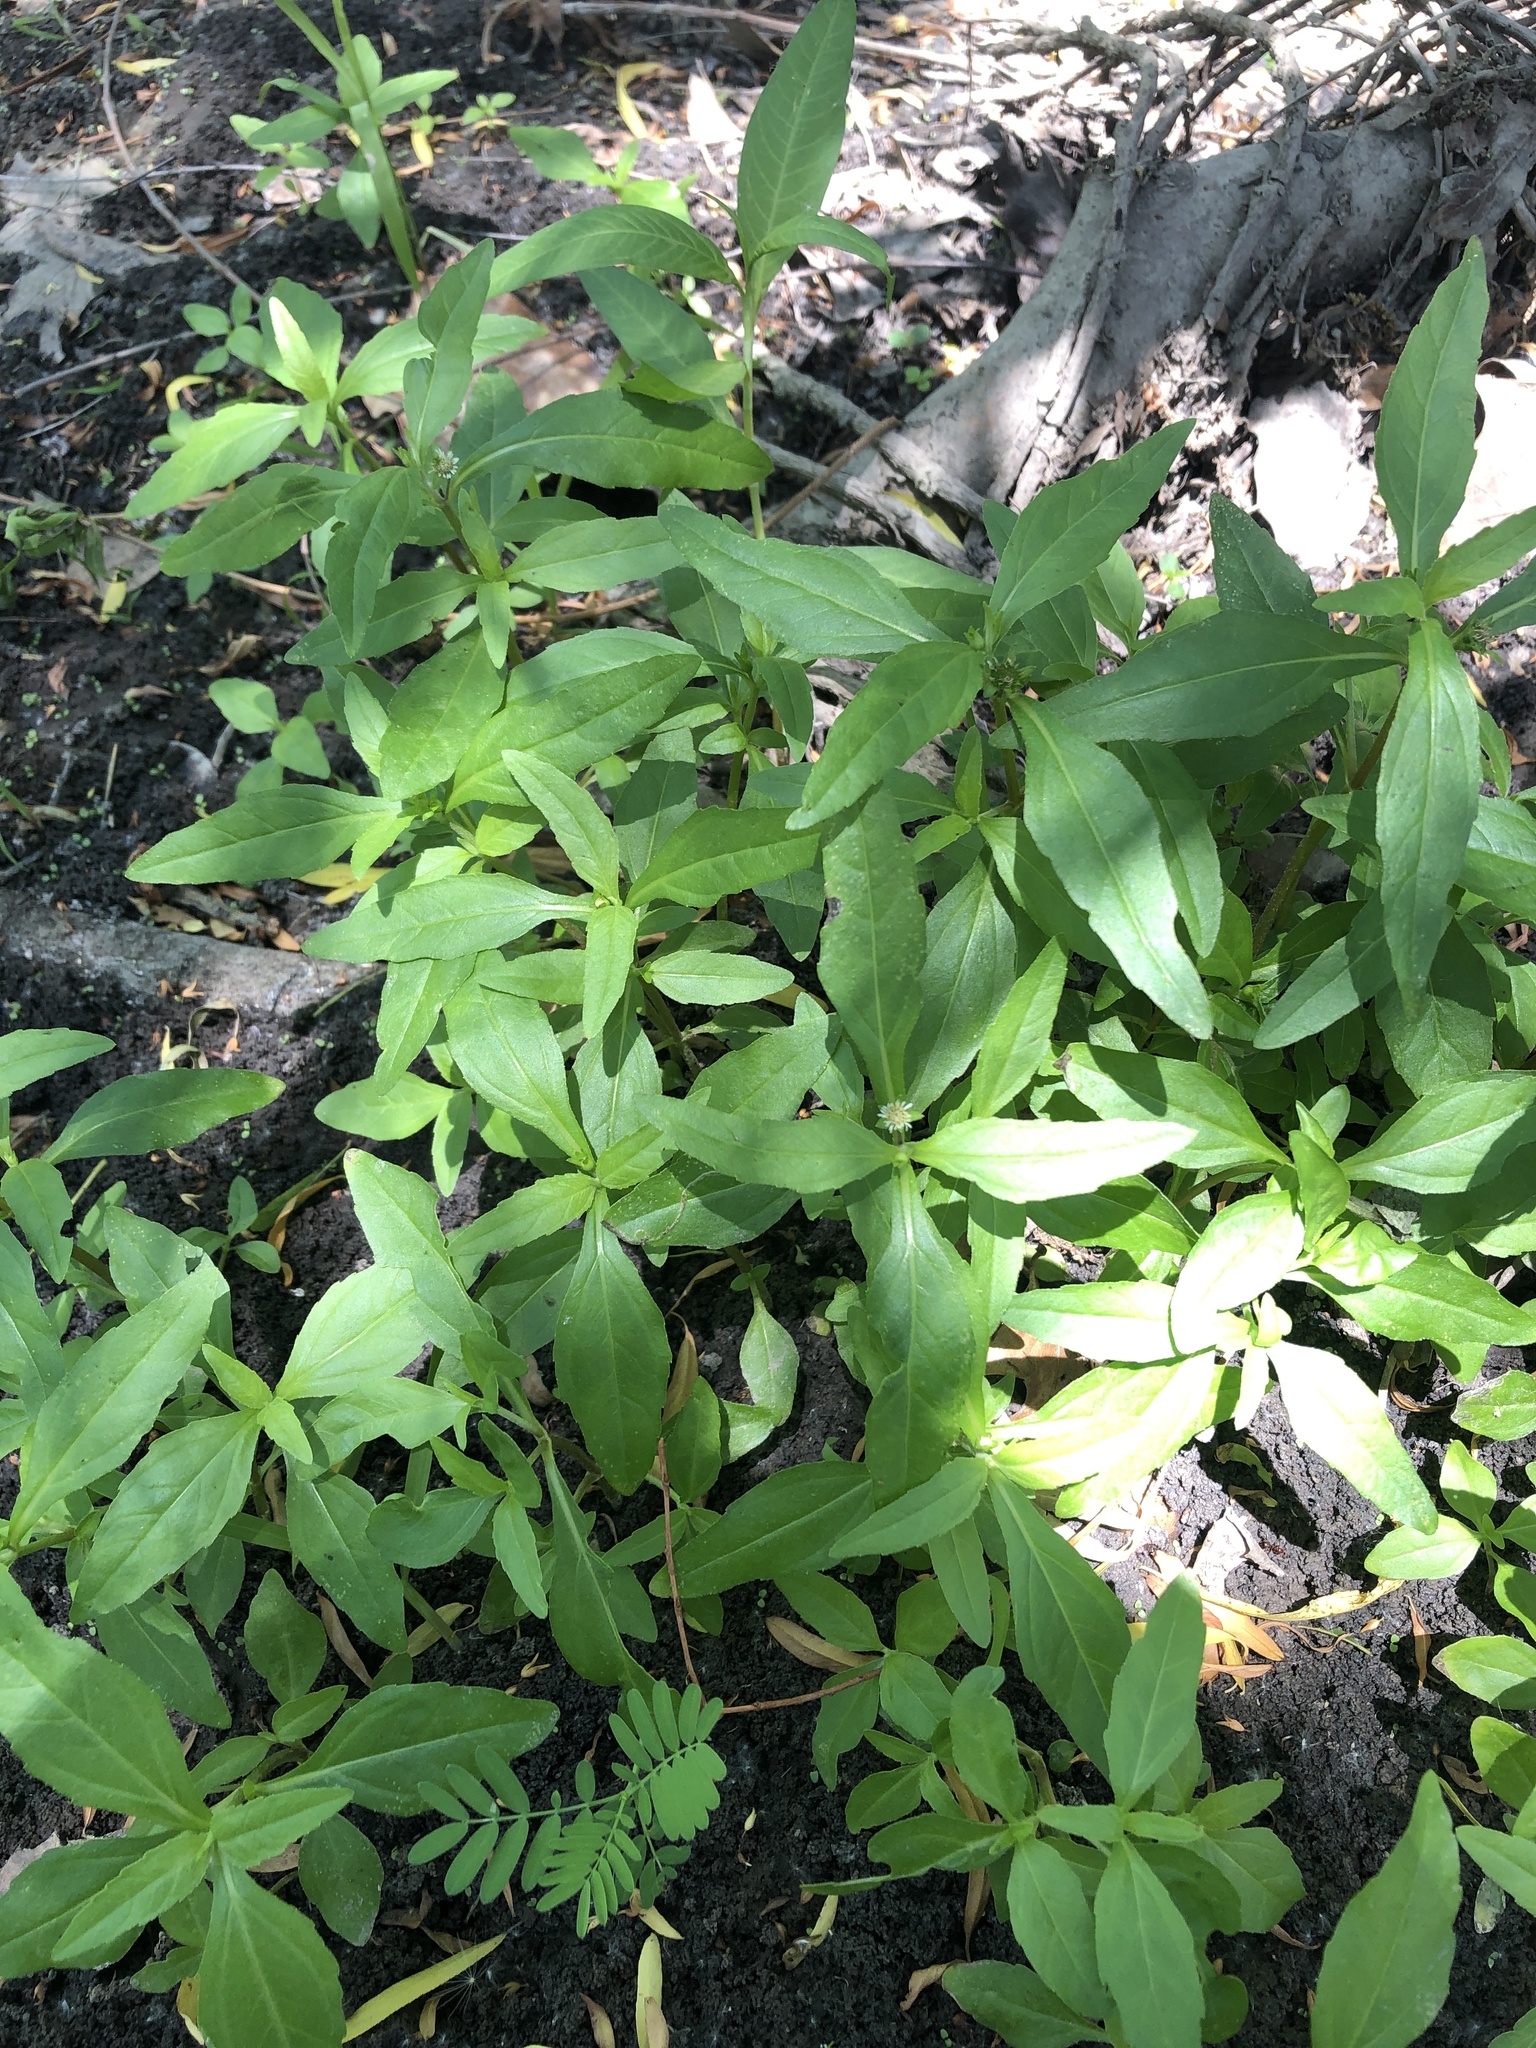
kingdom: Plantae
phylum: Tracheophyta
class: Magnoliopsida
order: Asterales
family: Asteraceae
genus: Eclipta
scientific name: Eclipta prostrata
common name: False daisy
